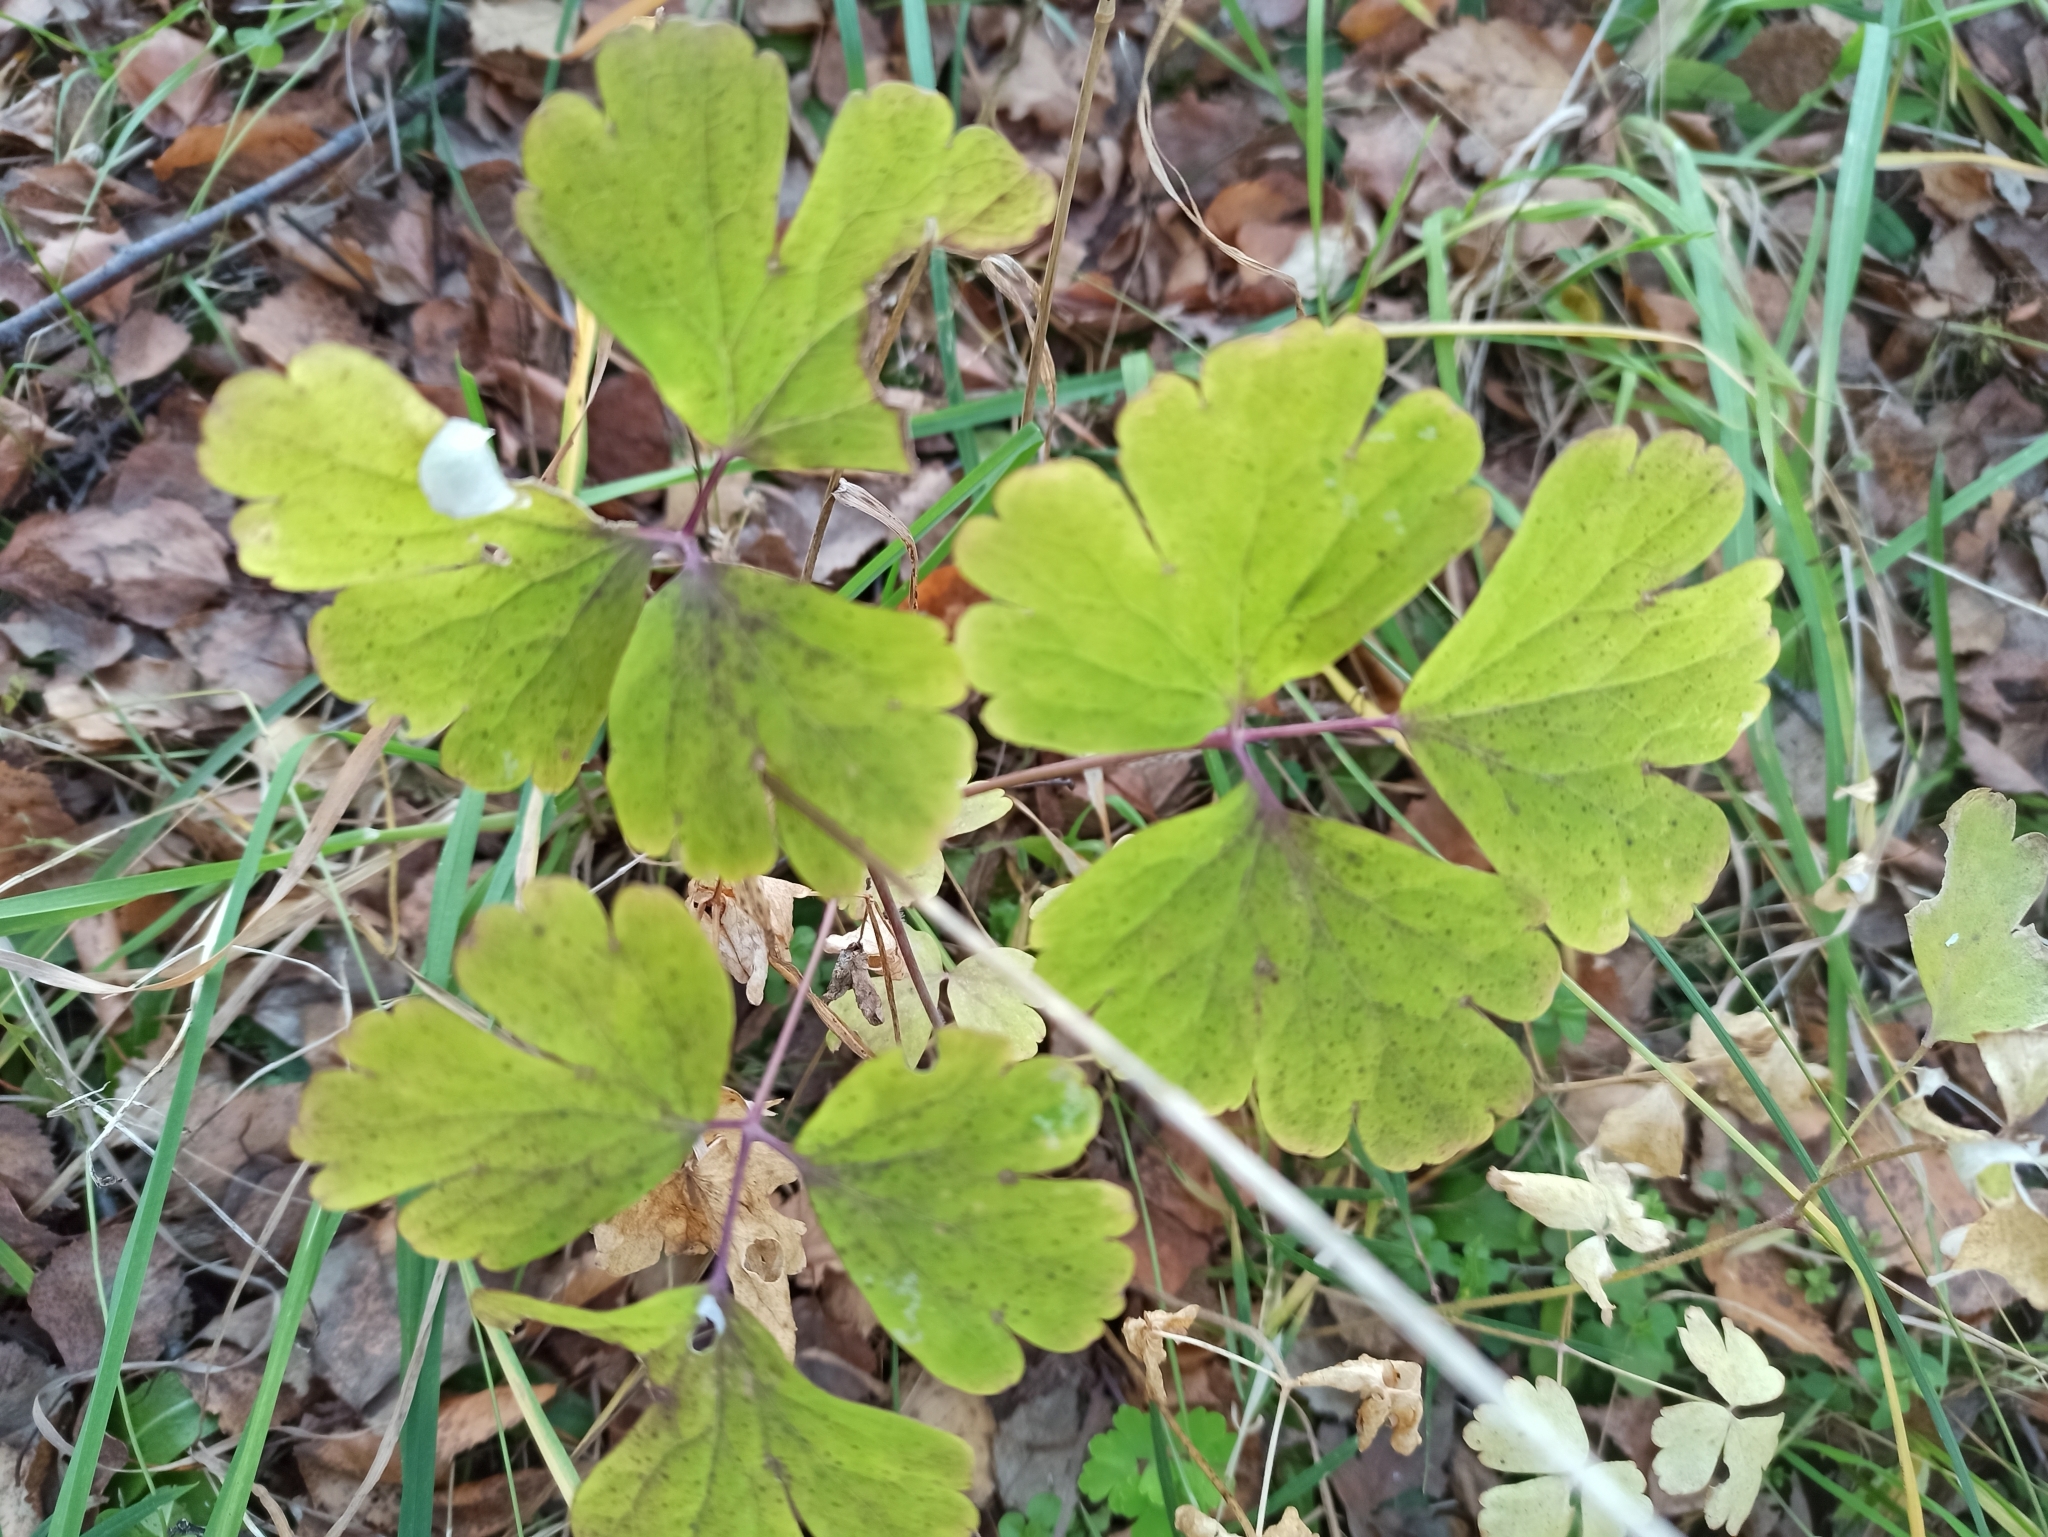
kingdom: Plantae
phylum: Tracheophyta
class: Magnoliopsida
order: Ranunculales
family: Ranunculaceae
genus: Aquilegia
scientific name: Aquilegia vulgaris
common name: Columbine
